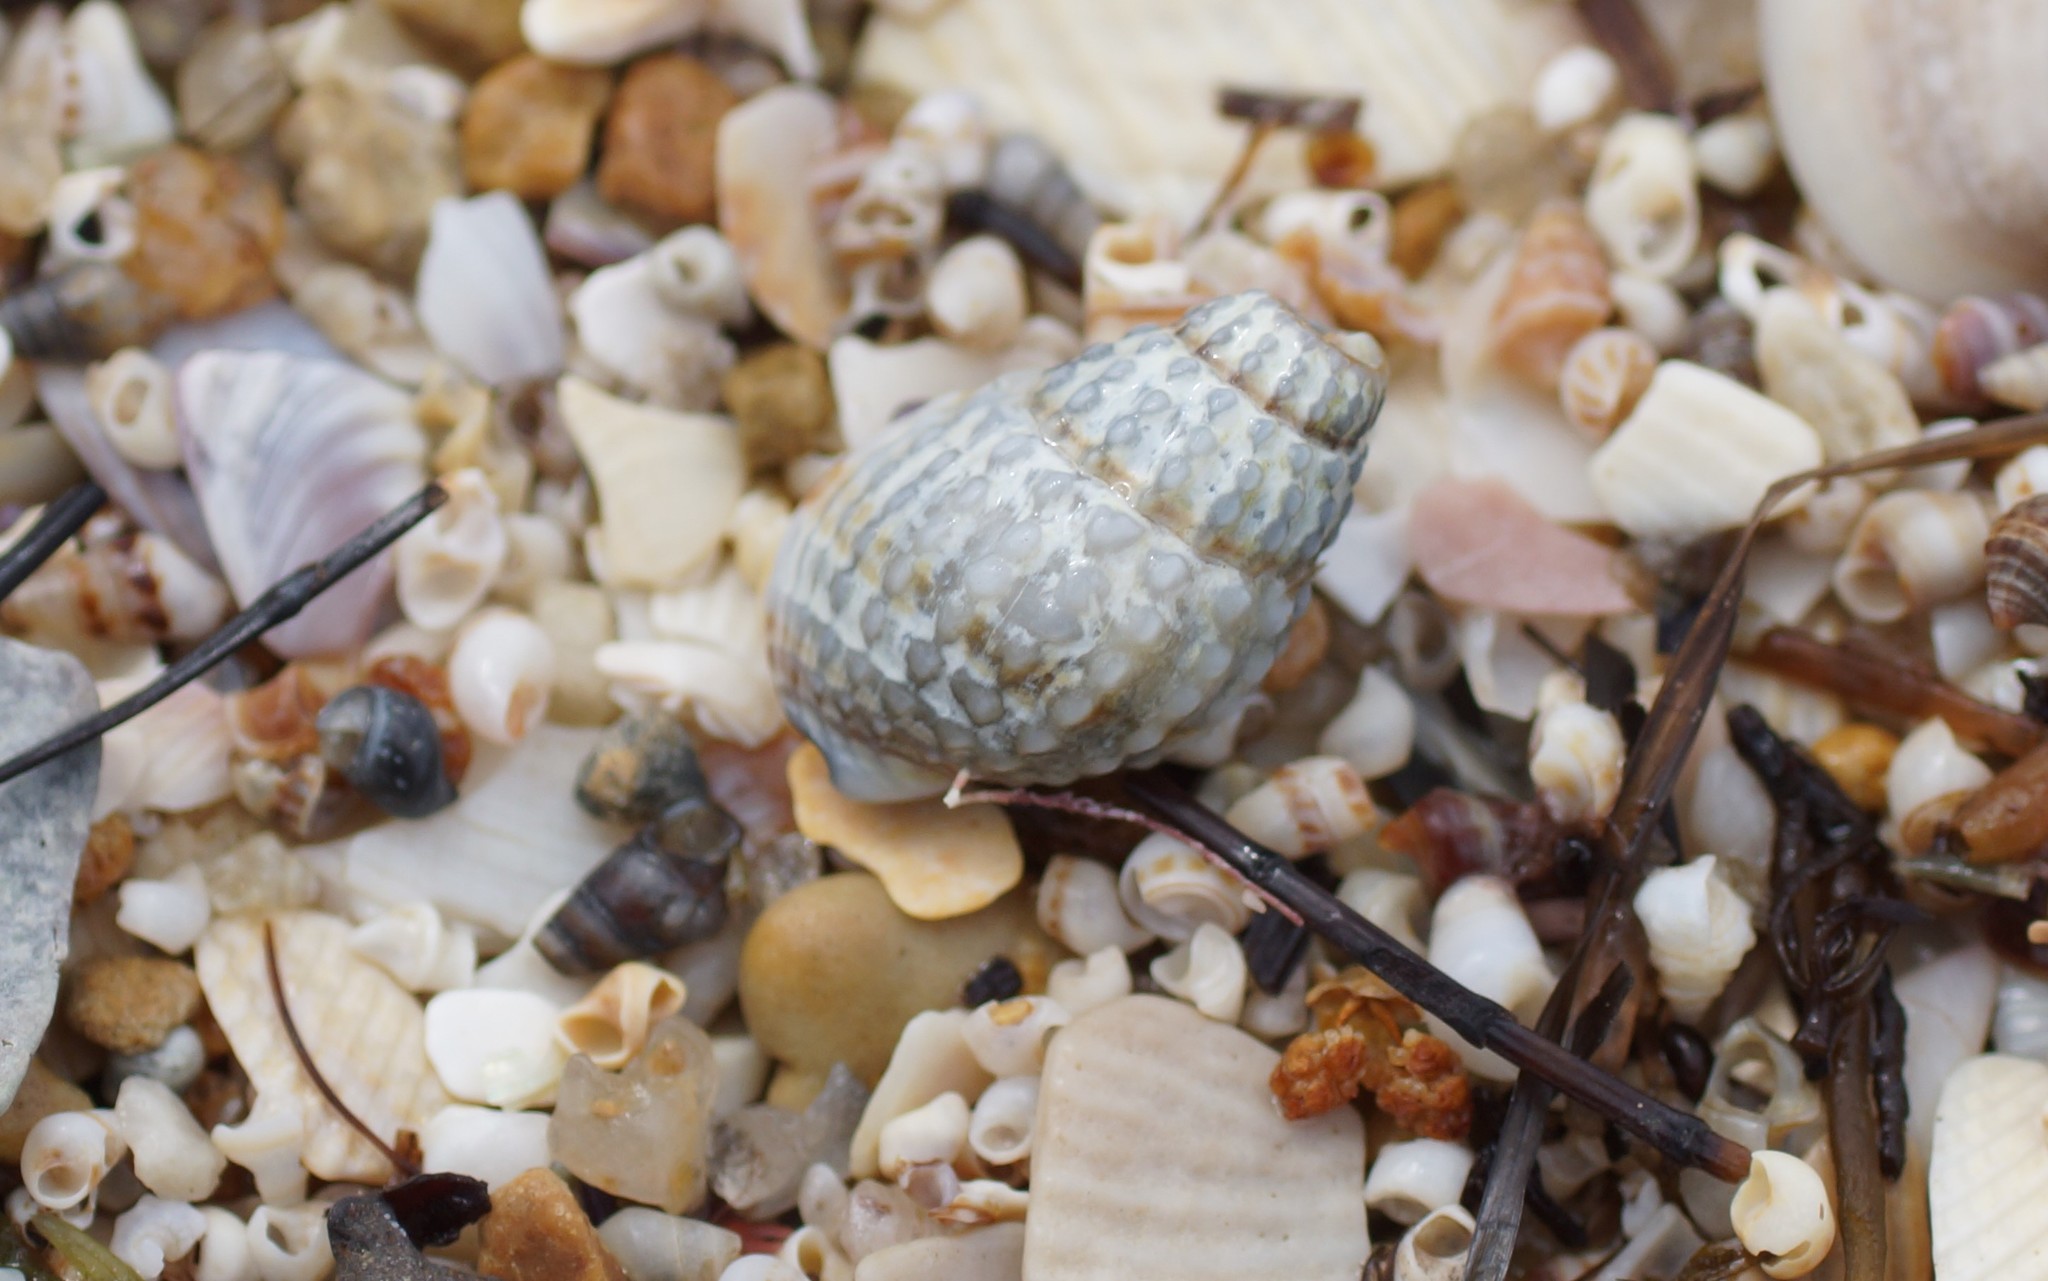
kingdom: Animalia
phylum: Mollusca
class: Gastropoda
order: Neogastropoda
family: Nassariidae
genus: Nassarius
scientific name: Nassarius pyrrhus
